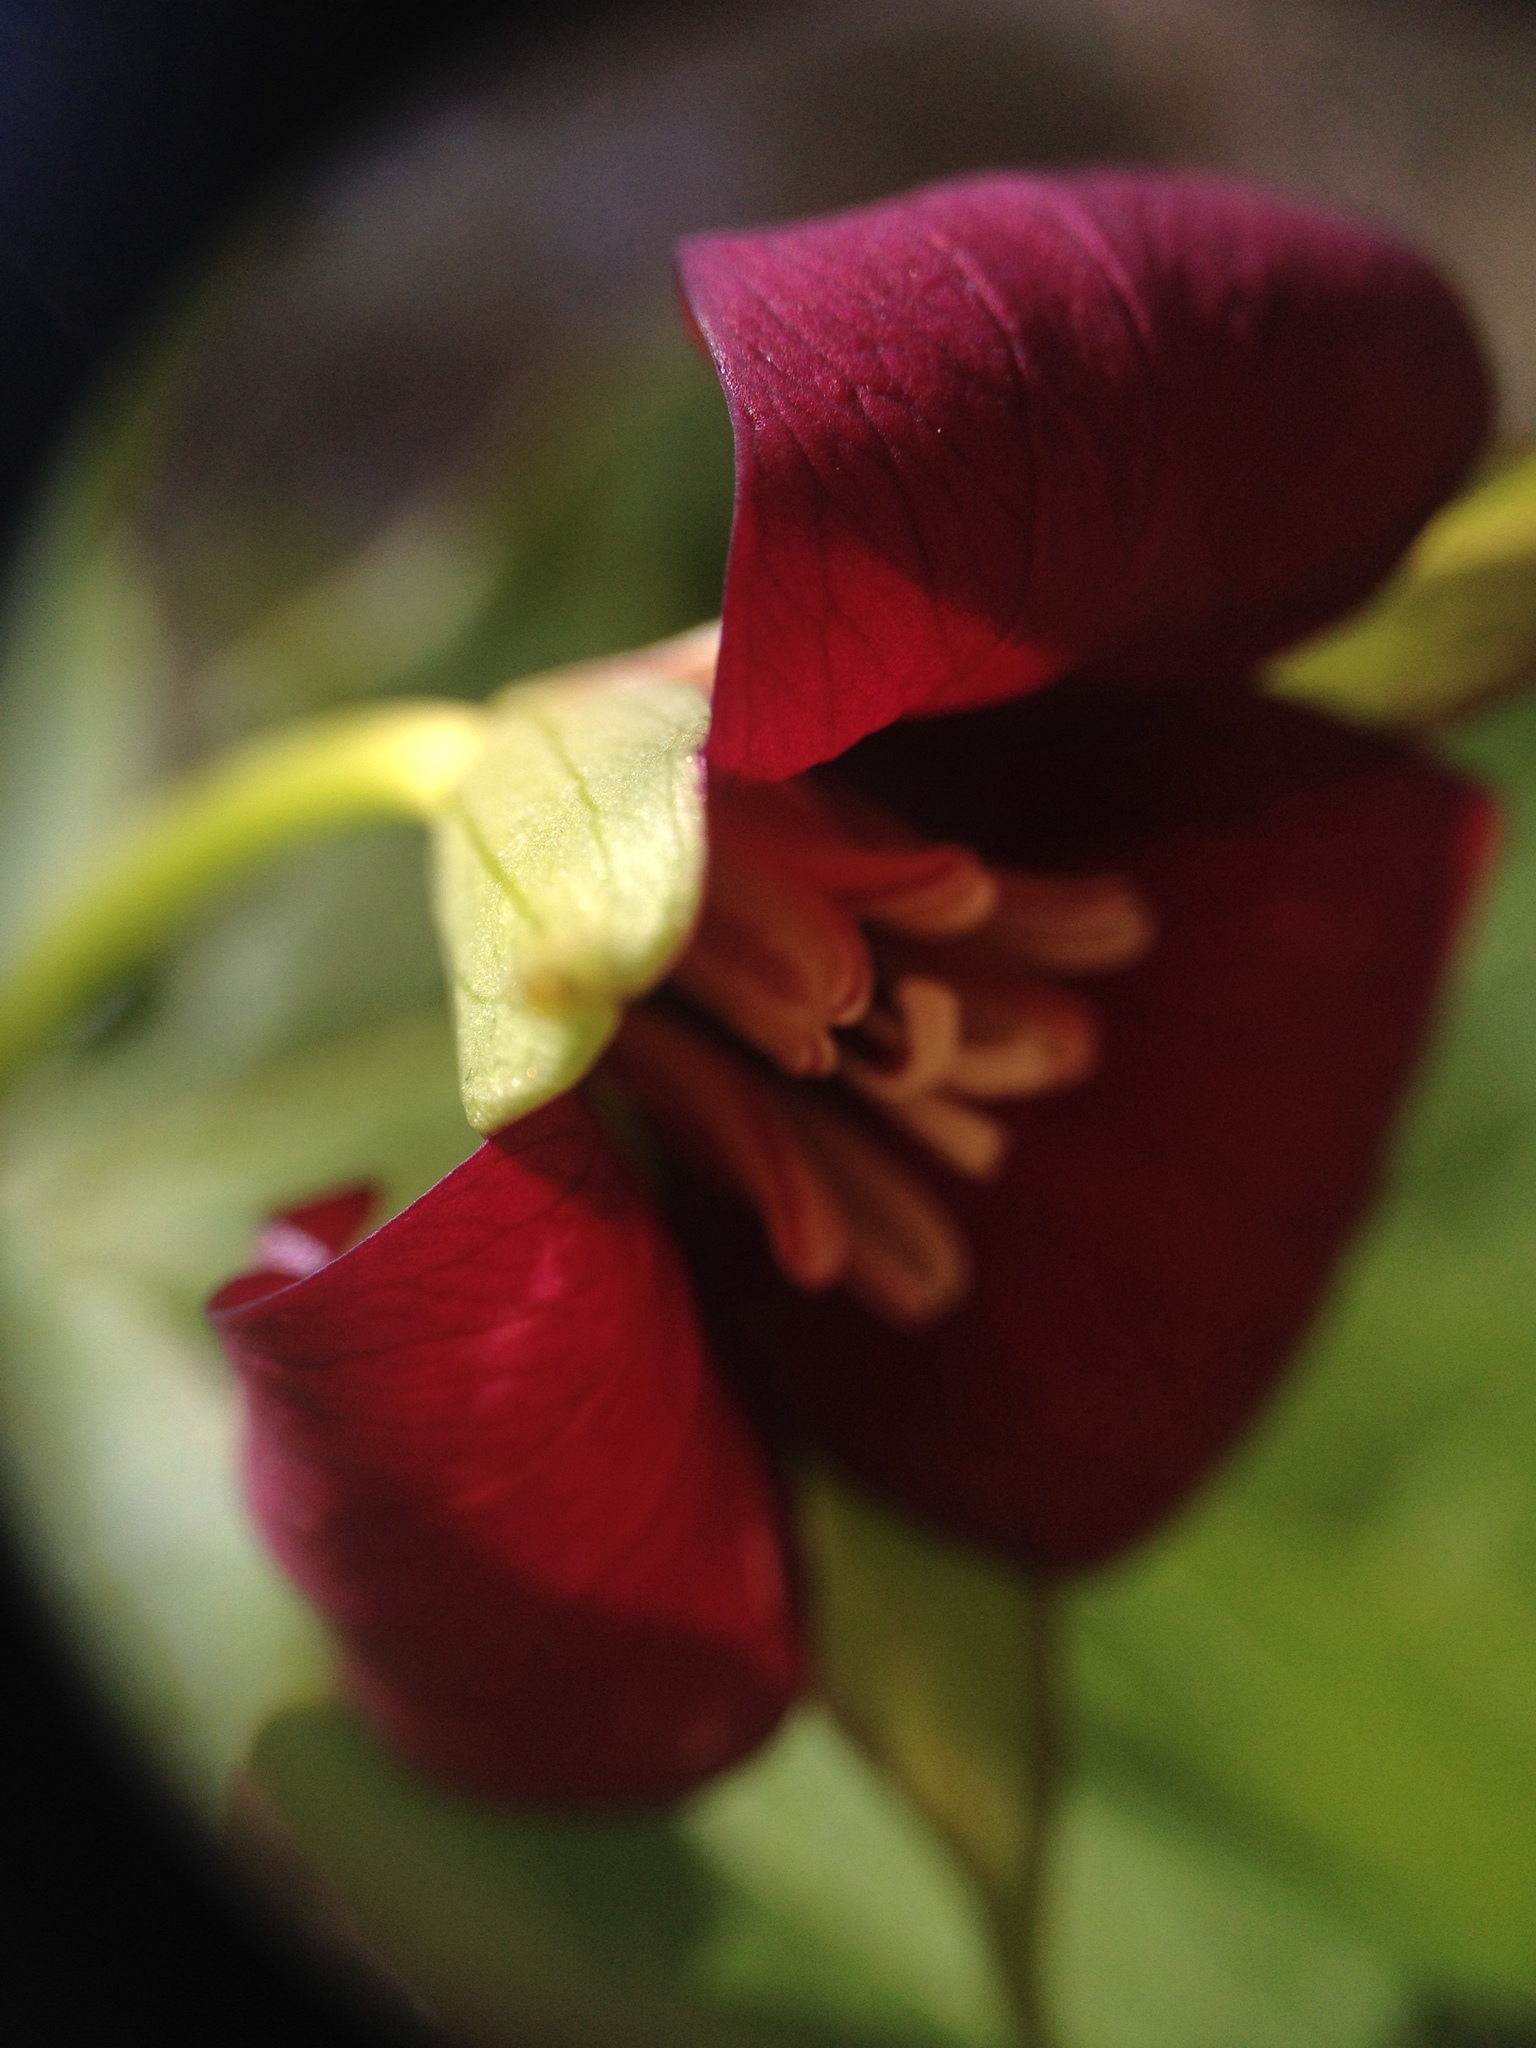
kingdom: Plantae
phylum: Tracheophyta
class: Liliopsida
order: Liliales
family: Melanthiaceae
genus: Trillium
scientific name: Trillium erectum
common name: Purple trillium
